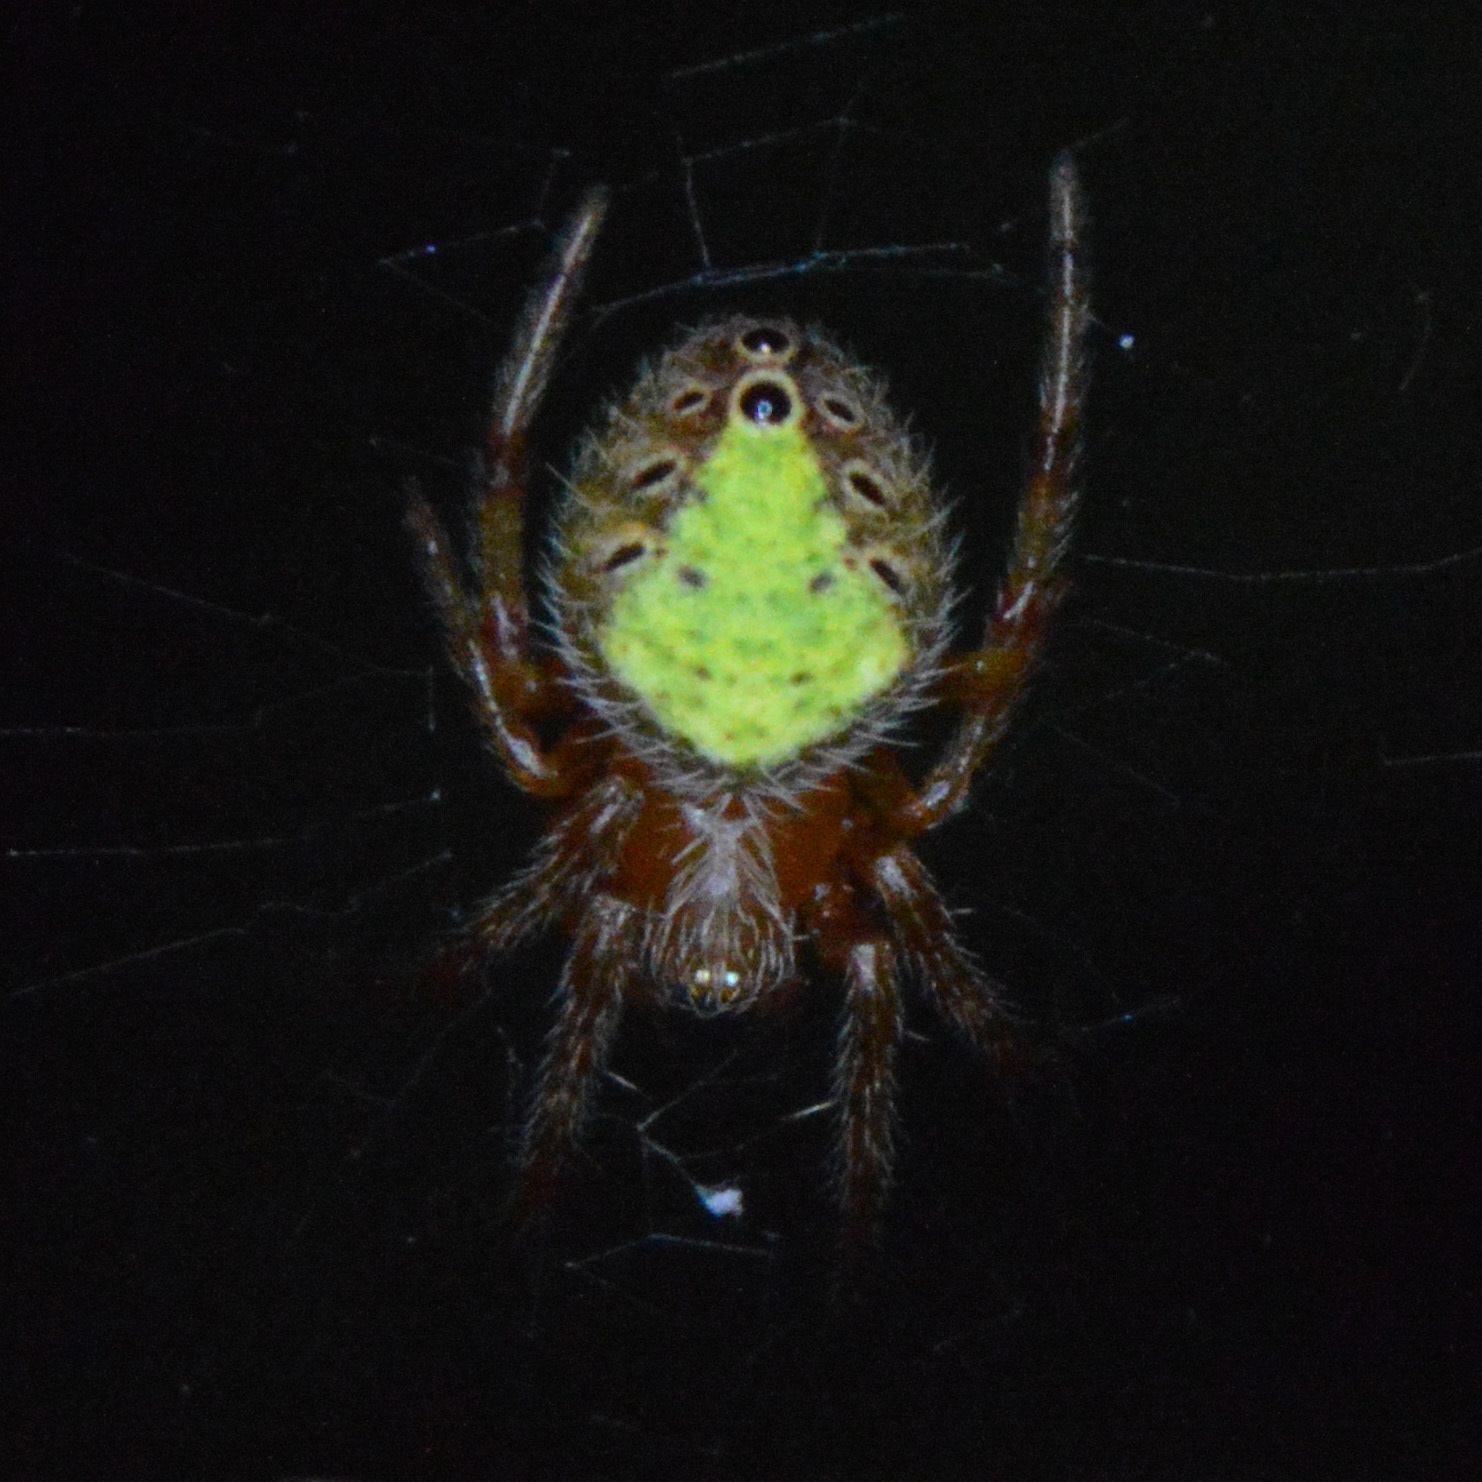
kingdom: Animalia
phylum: Arthropoda
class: Arachnida
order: Araneae
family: Araneidae
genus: Eriophora
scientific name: Eriophora ravilla
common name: Orb weavers
